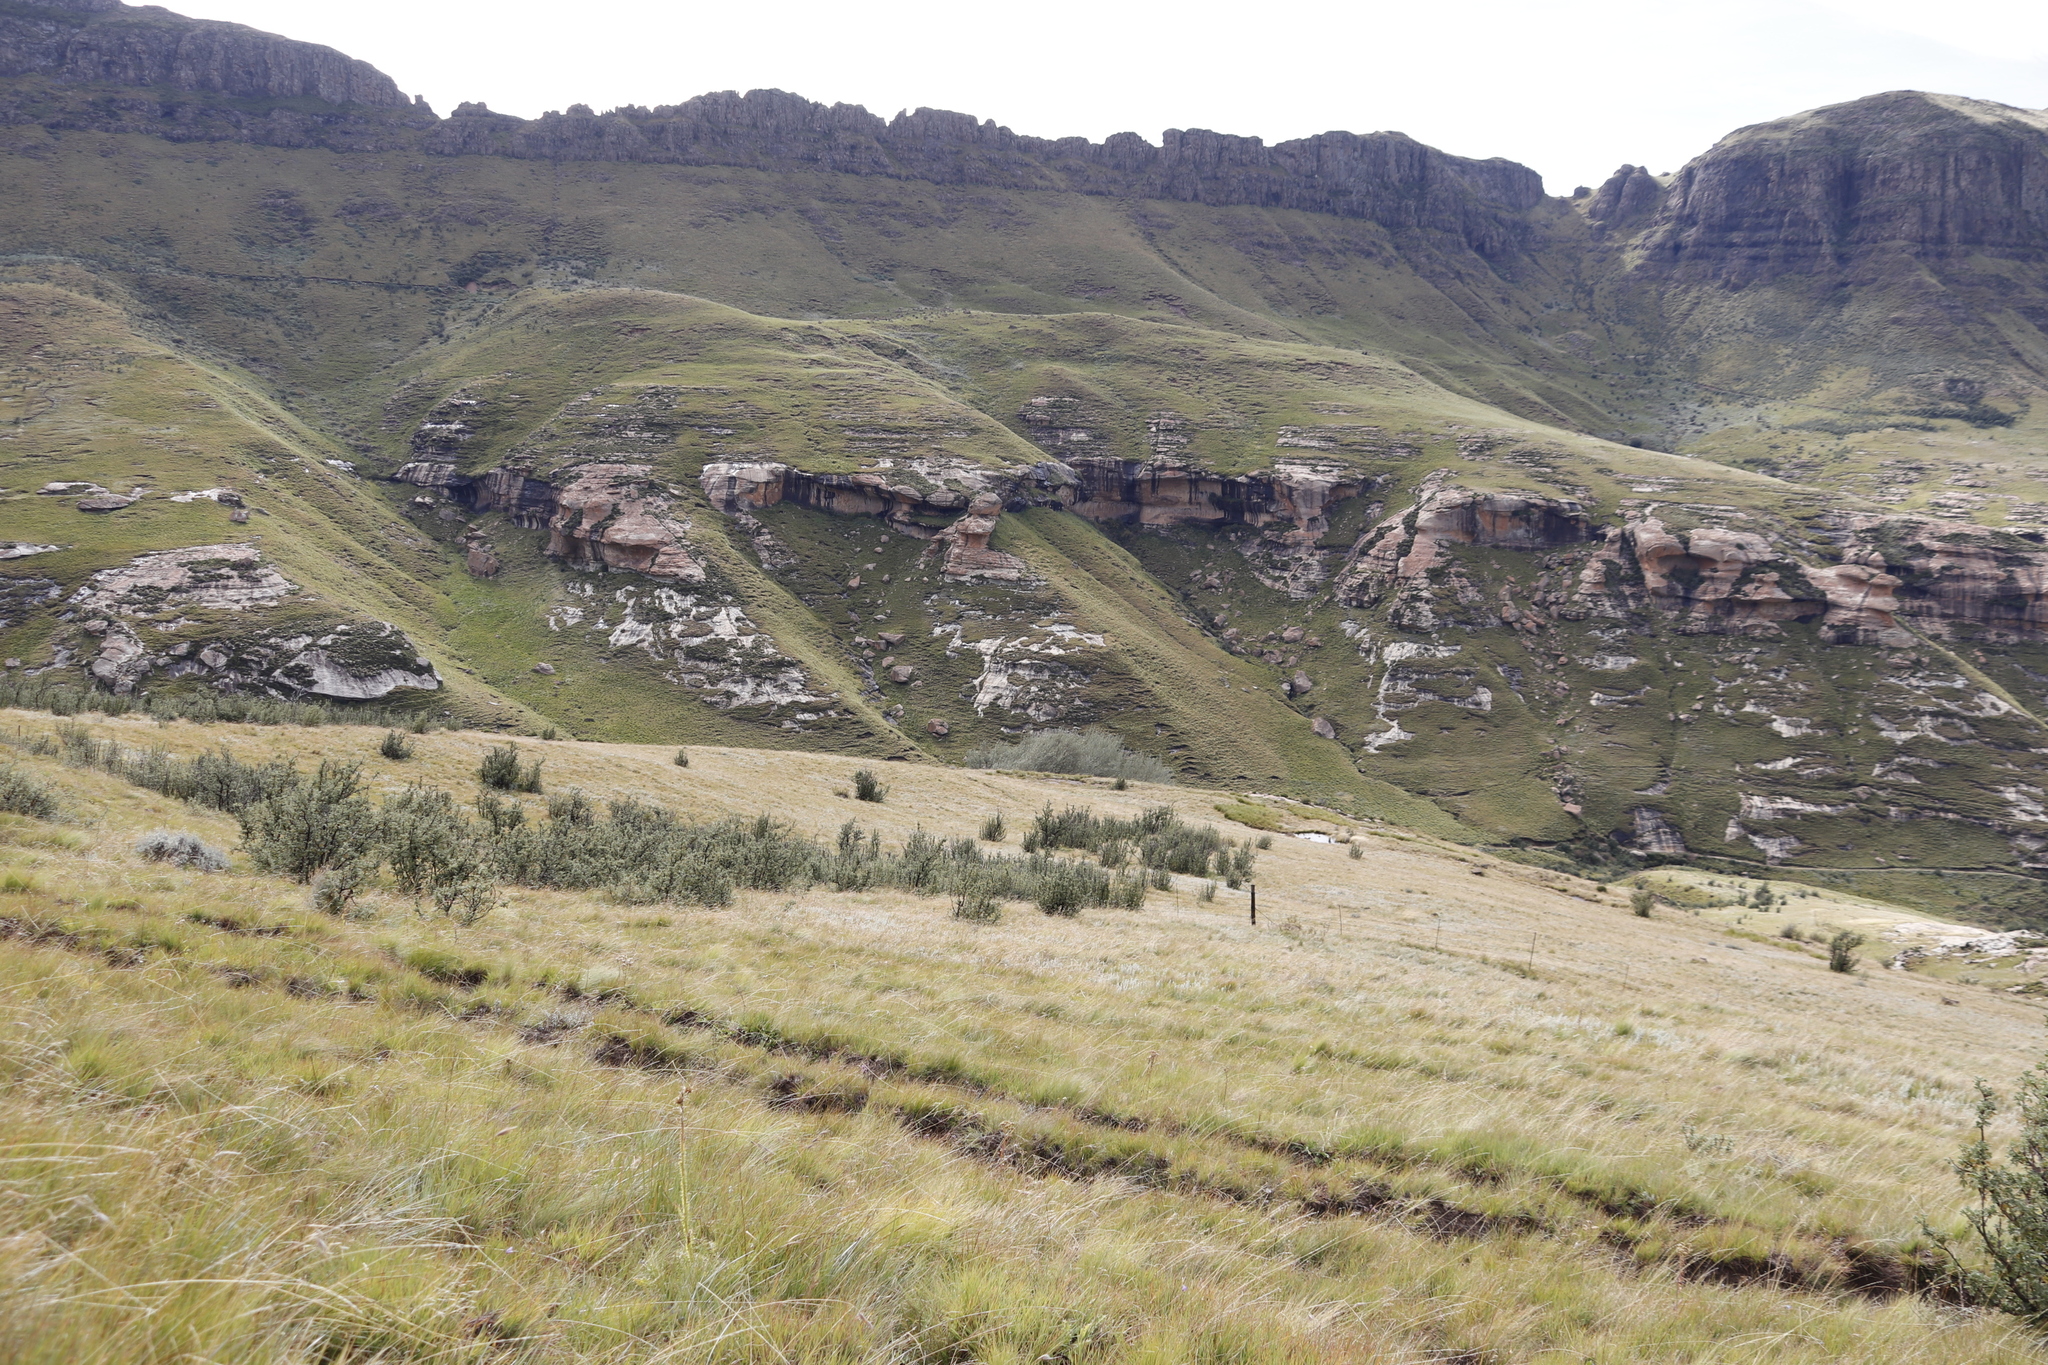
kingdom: Plantae
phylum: Tracheophyta
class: Magnoliopsida
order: Rosales
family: Rosaceae
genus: Leucosidea
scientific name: Leucosidea sericea
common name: Oldwood
